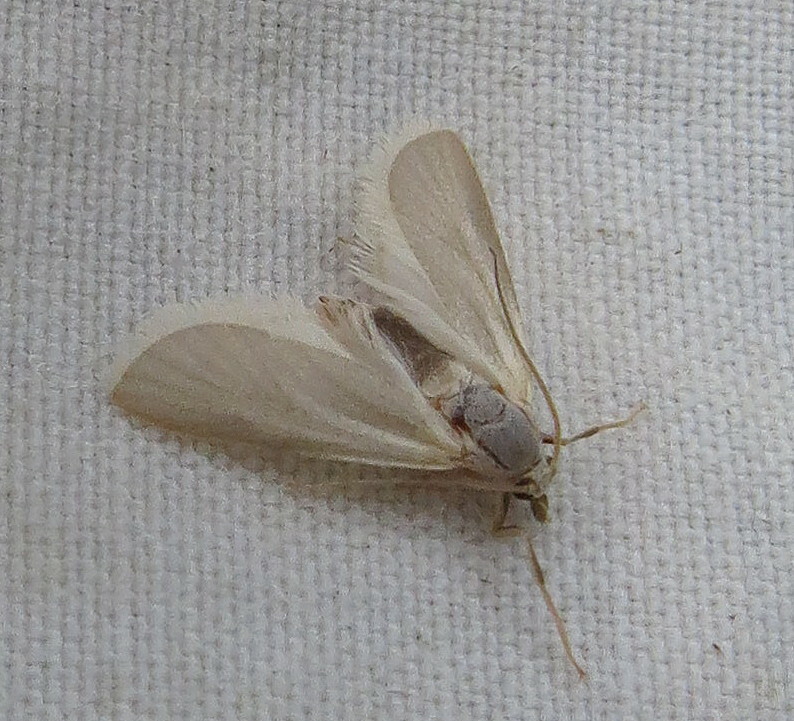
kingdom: Animalia
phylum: Arthropoda
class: Insecta
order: Lepidoptera
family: Crambidae
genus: Acentria
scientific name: Acentria ephemerella
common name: European water moth
